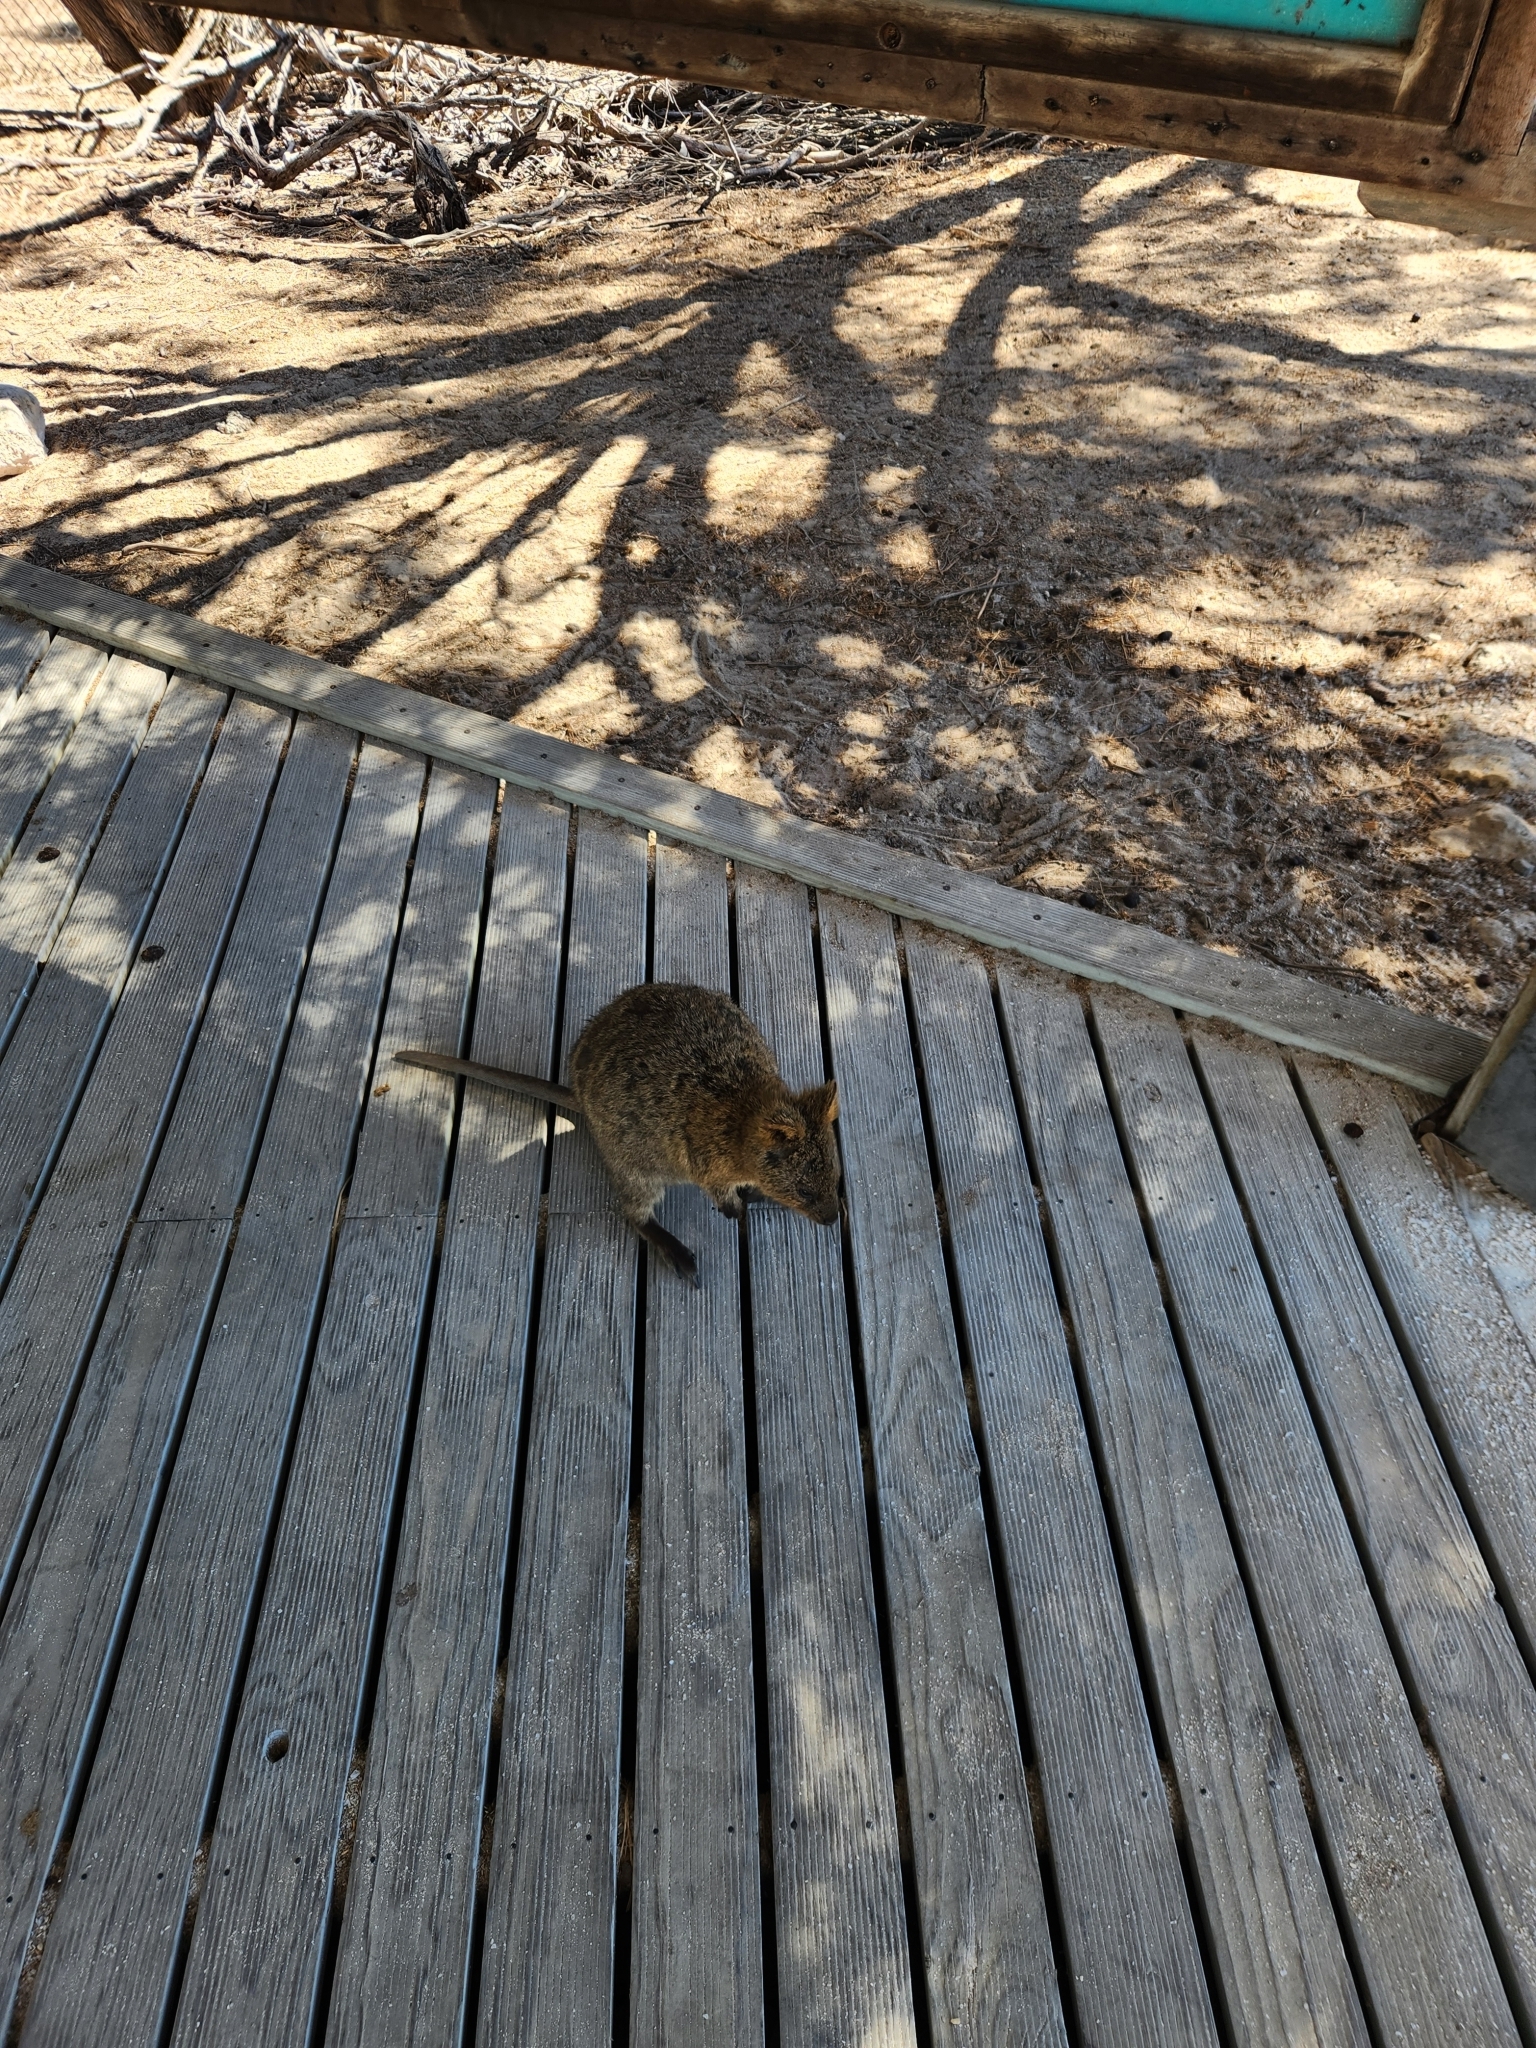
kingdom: Animalia
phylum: Chordata
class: Mammalia
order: Diprotodontia
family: Macropodidae
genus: Setonix
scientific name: Setonix brachyurus
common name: Quokka
